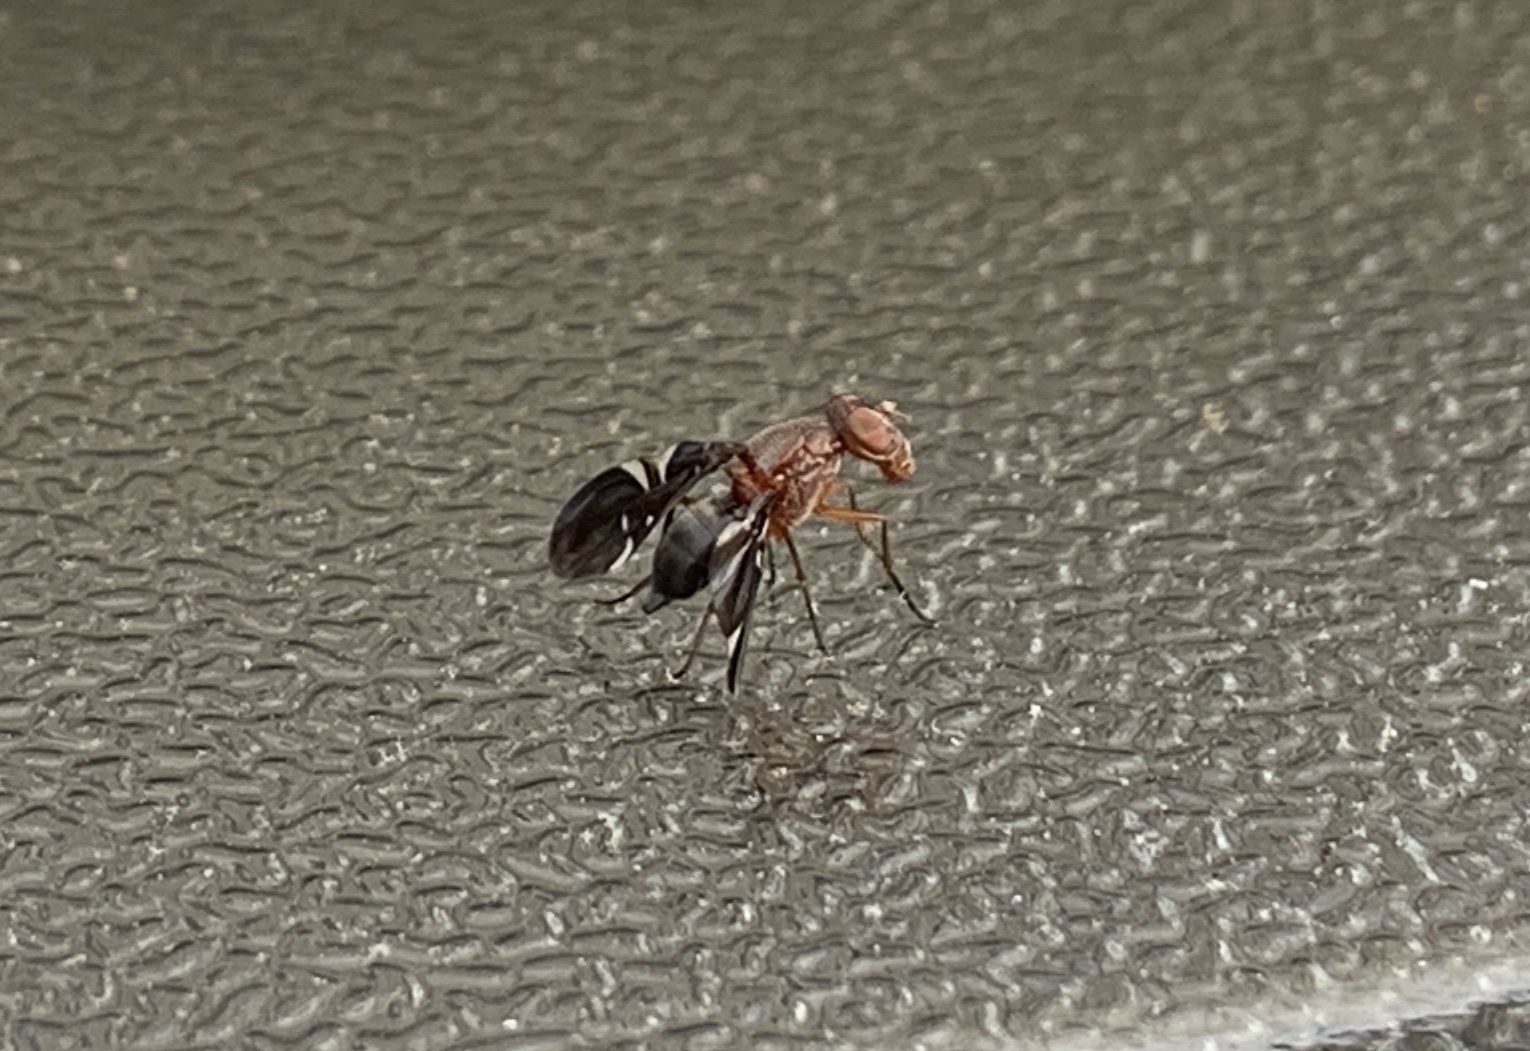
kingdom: Animalia
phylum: Arthropoda
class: Insecta
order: Diptera
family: Ulidiidae
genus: Delphinia
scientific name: Delphinia picta
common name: Common picture-winged fly
